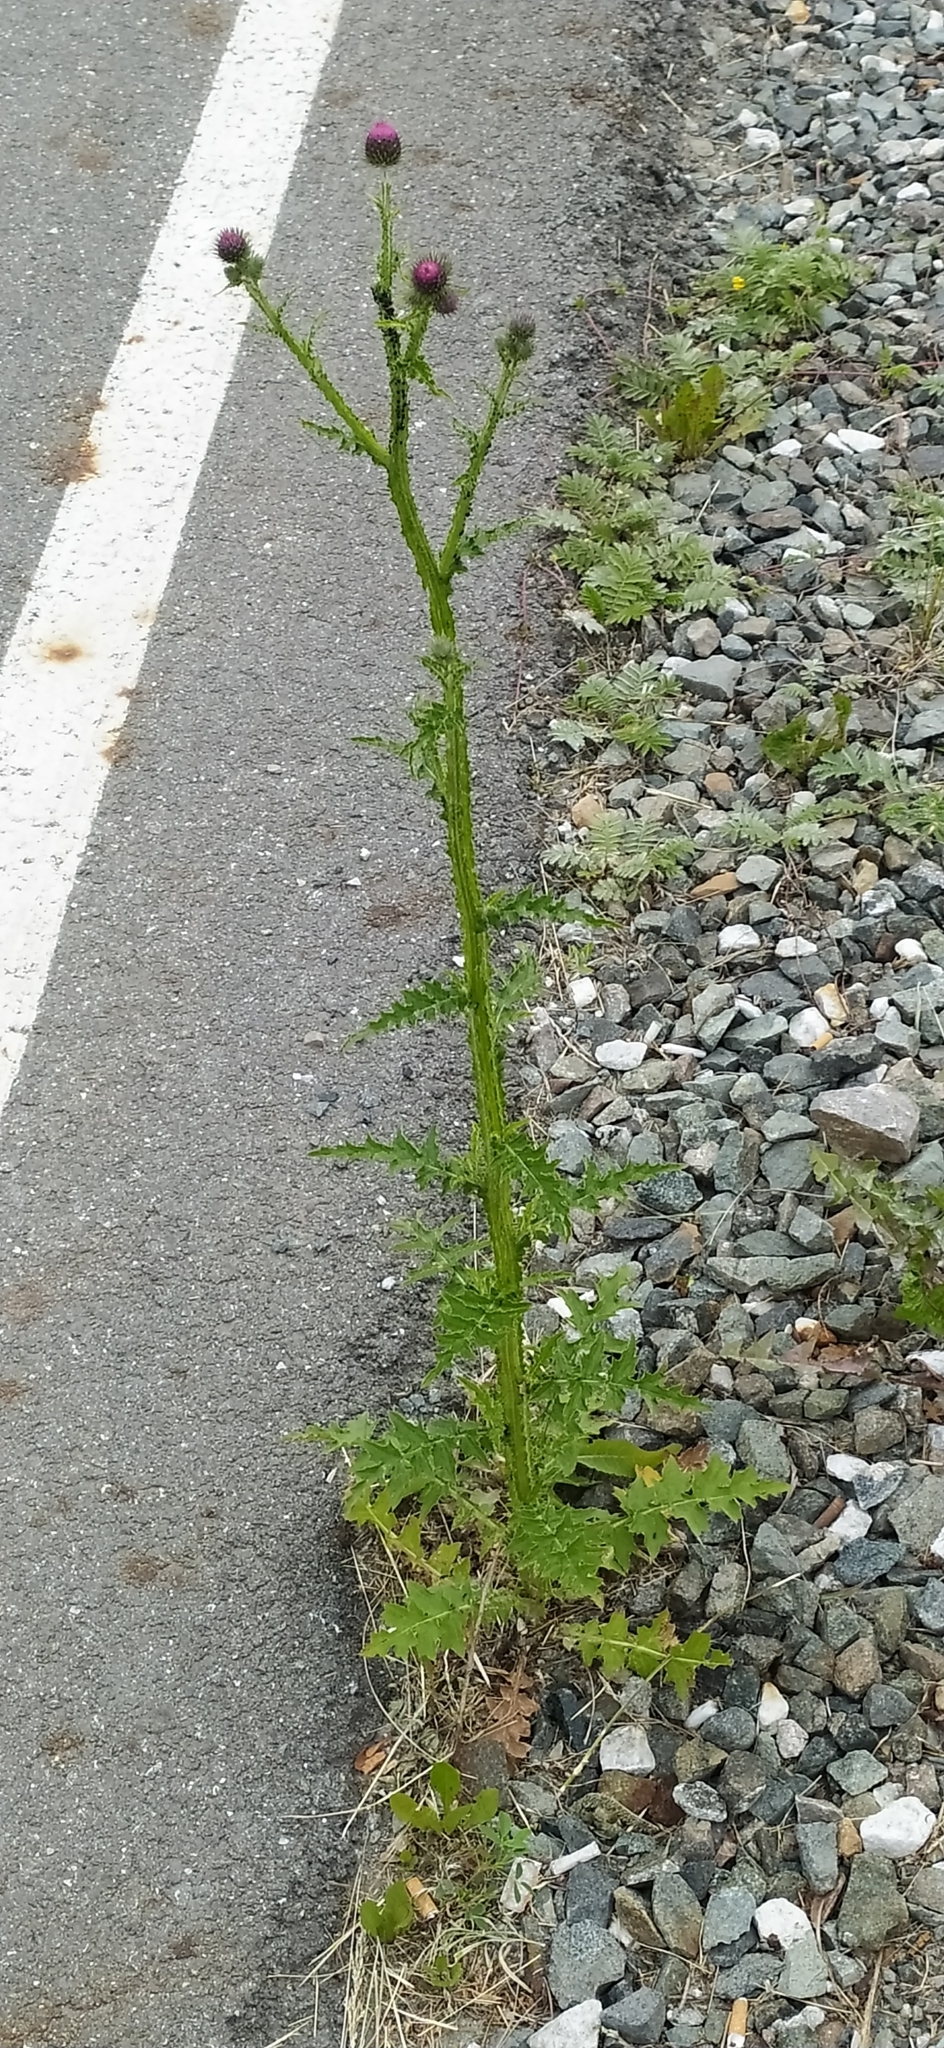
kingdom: Plantae
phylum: Tracheophyta
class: Magnoliopsida
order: Asterales
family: Asteraceae
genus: Carduus
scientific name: Carduus crispus
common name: Welted thistle
